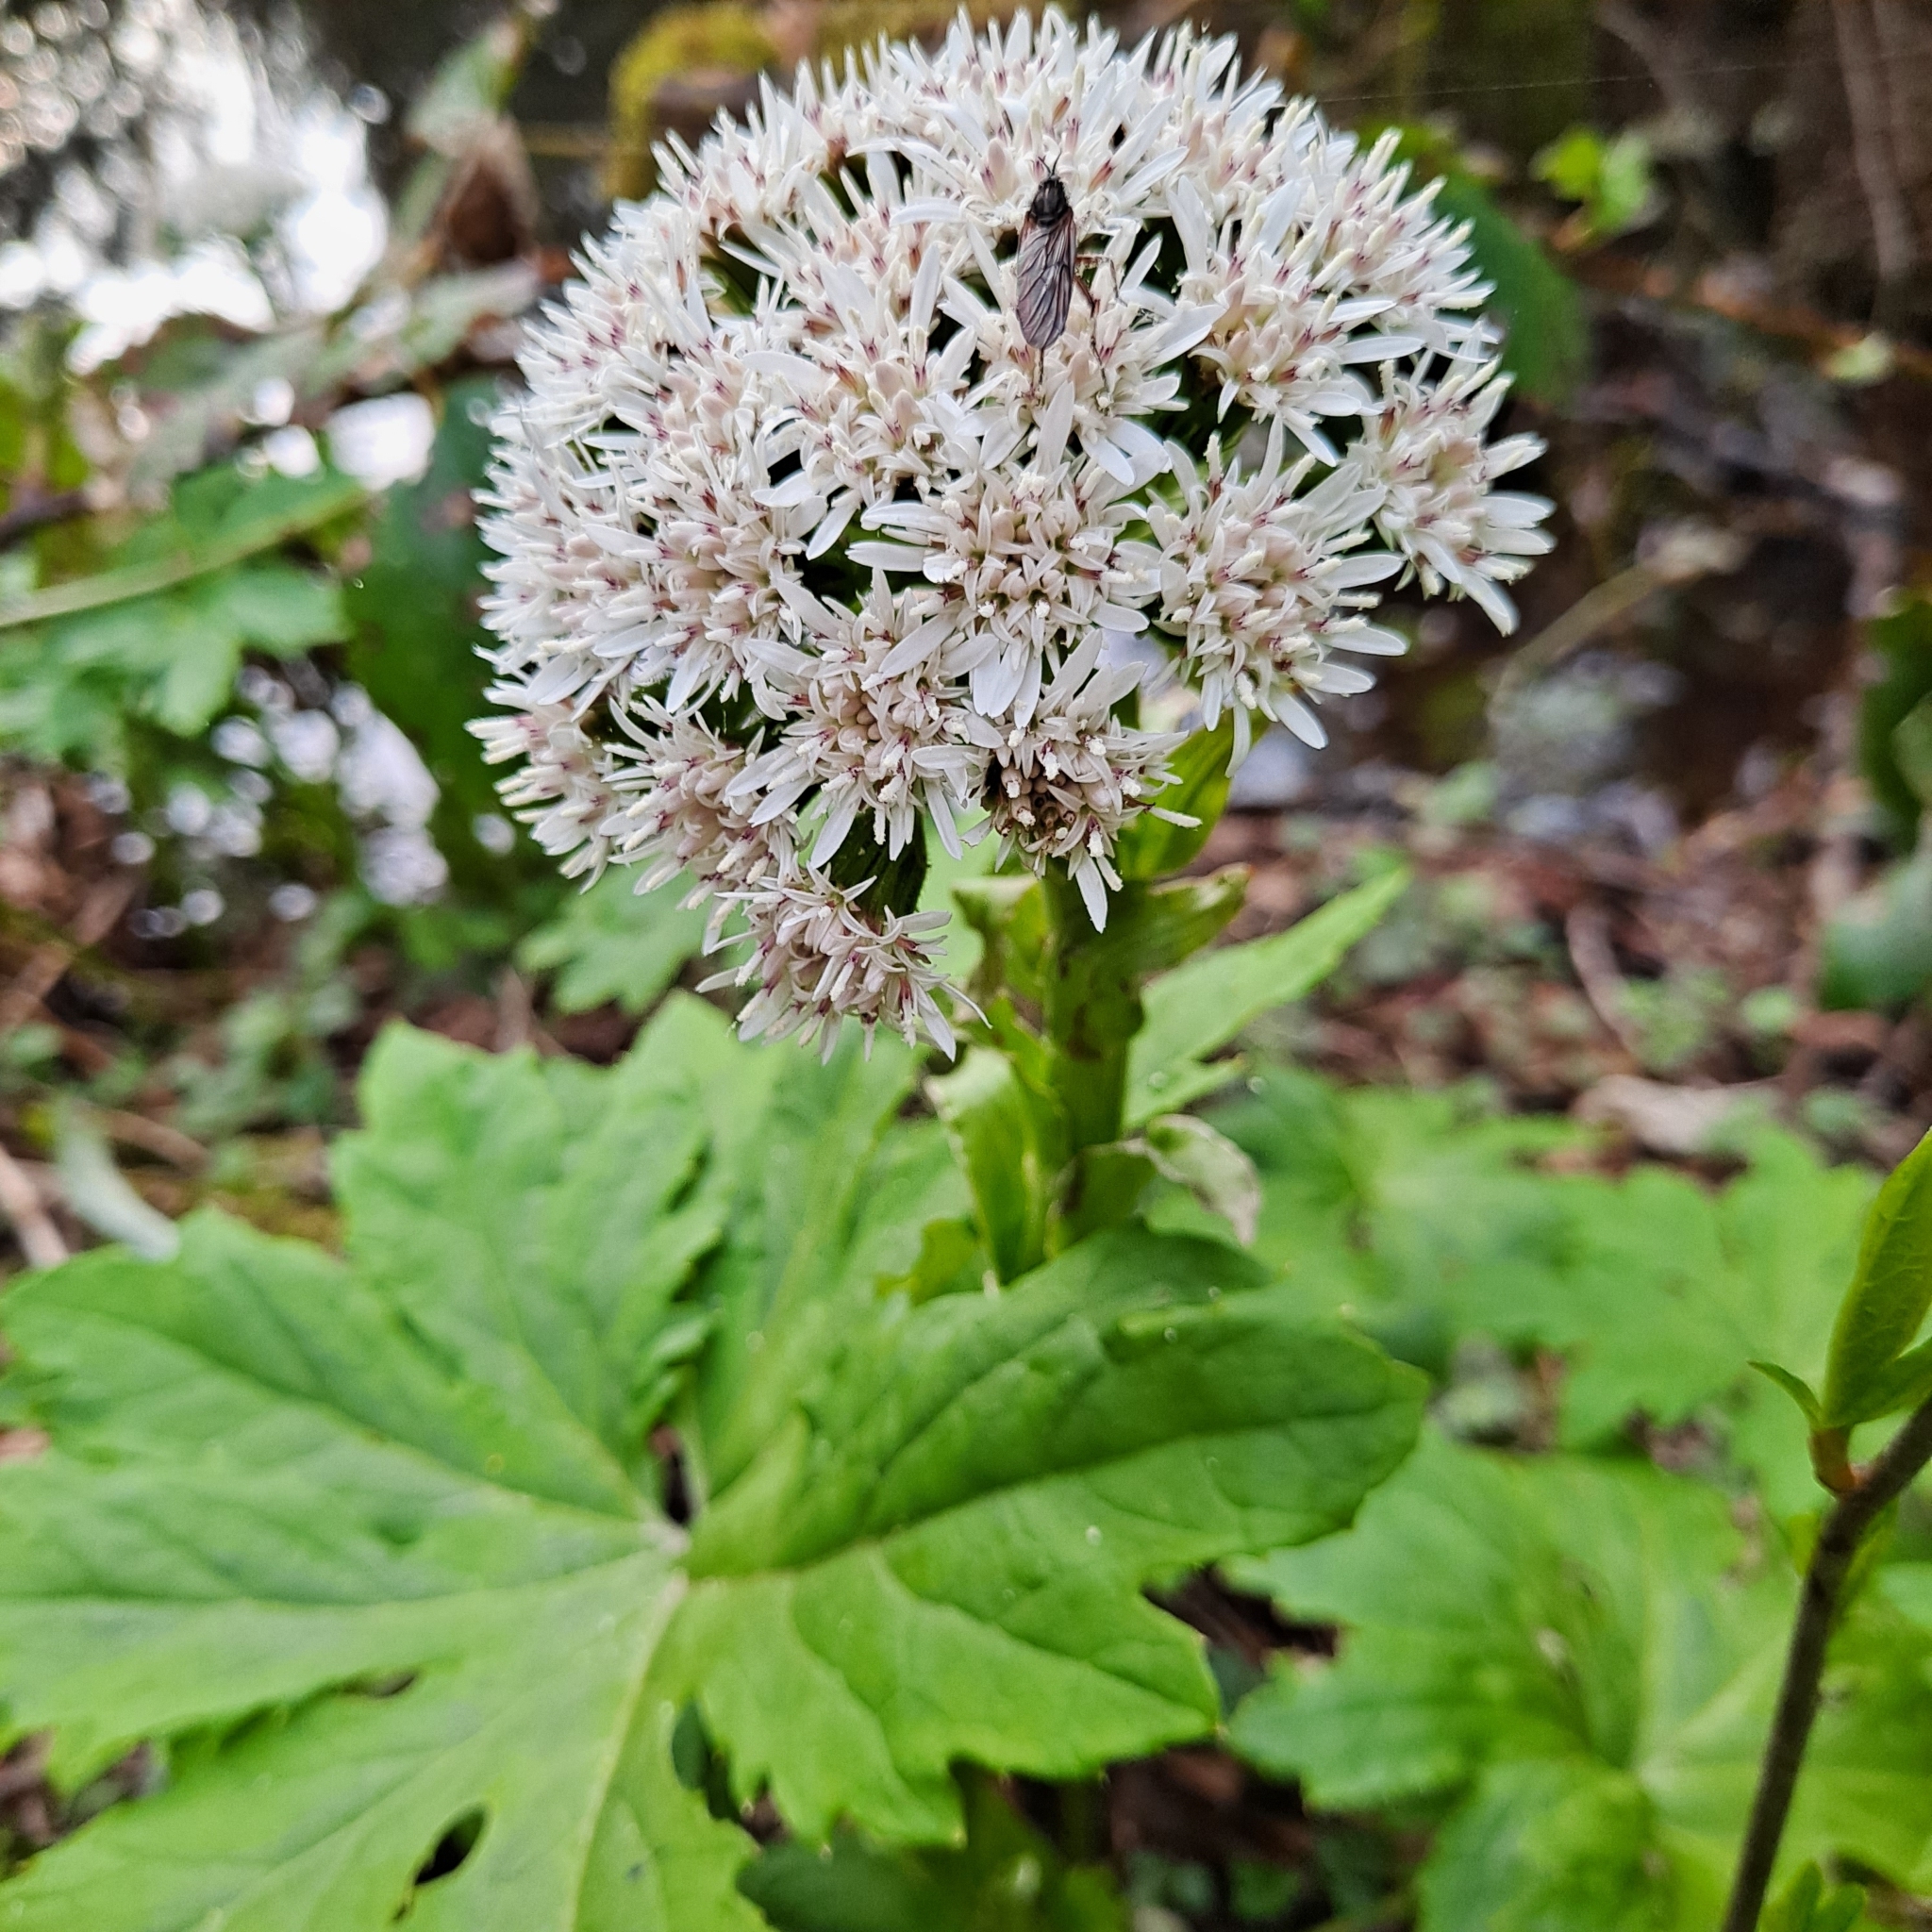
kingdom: Plantae
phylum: Tracheophyta
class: Magnoliopsida
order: Asterales
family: Asteraceae
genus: Petasites
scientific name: Petasites frigidus
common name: Arctic butterbur
